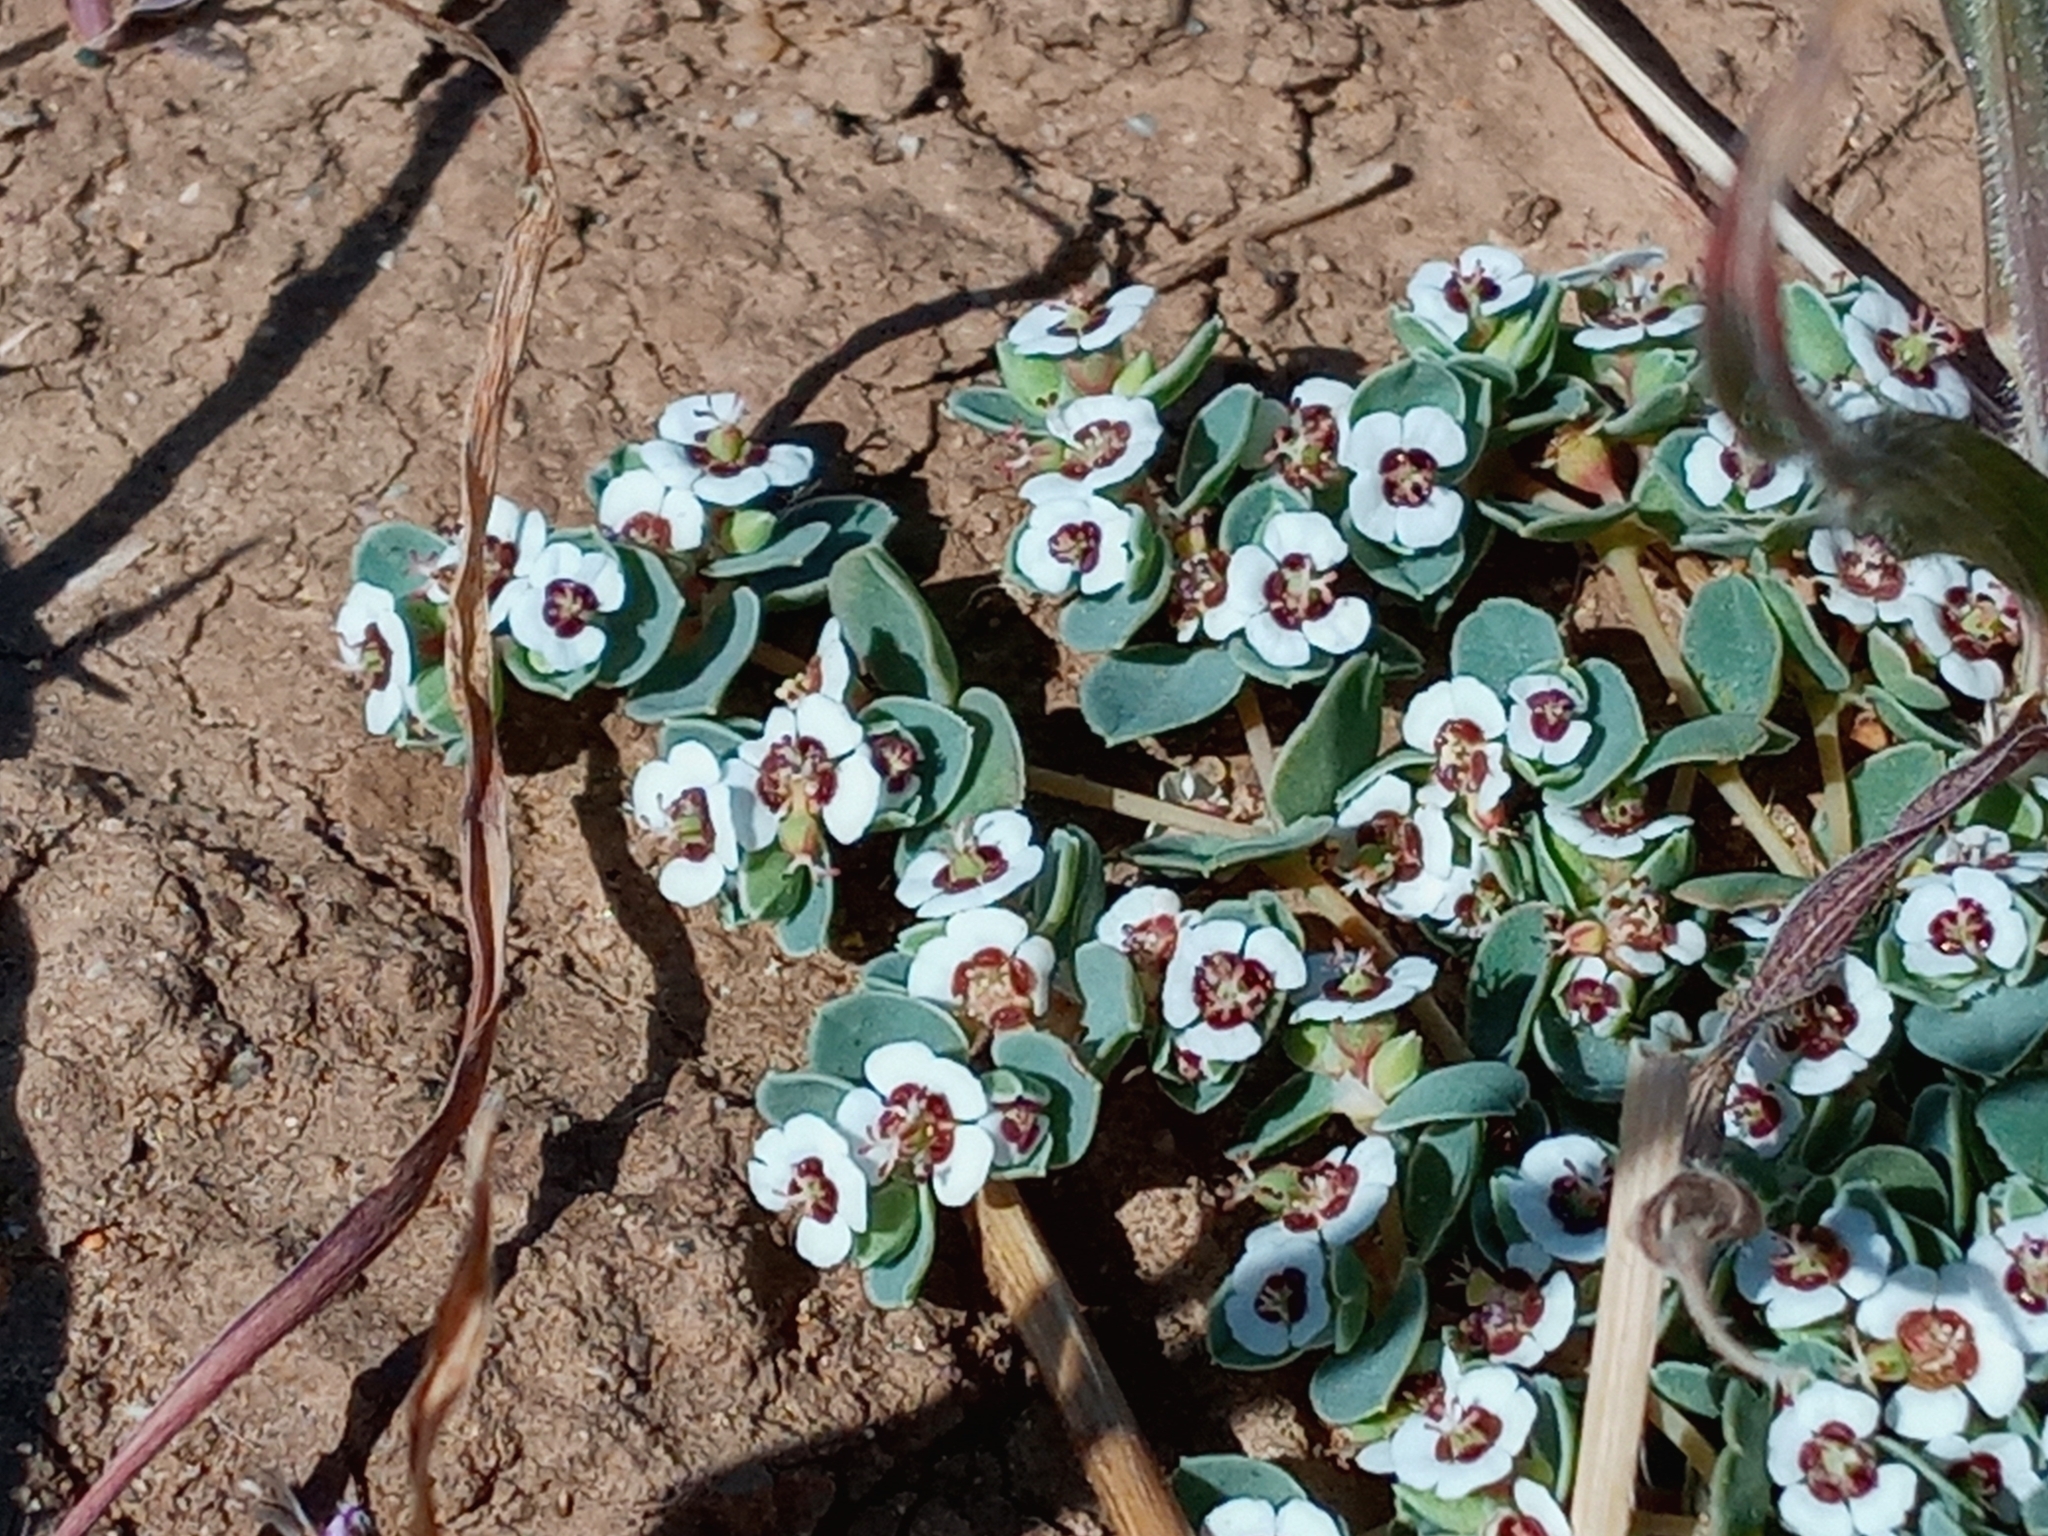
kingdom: Plantae
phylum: Tracheophyta
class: Magnoliopsida
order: Malpighiales
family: Euphorbiaceae
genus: Euphorbia
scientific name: Euphorbia albomarginata
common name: Whitemargin sandmat
